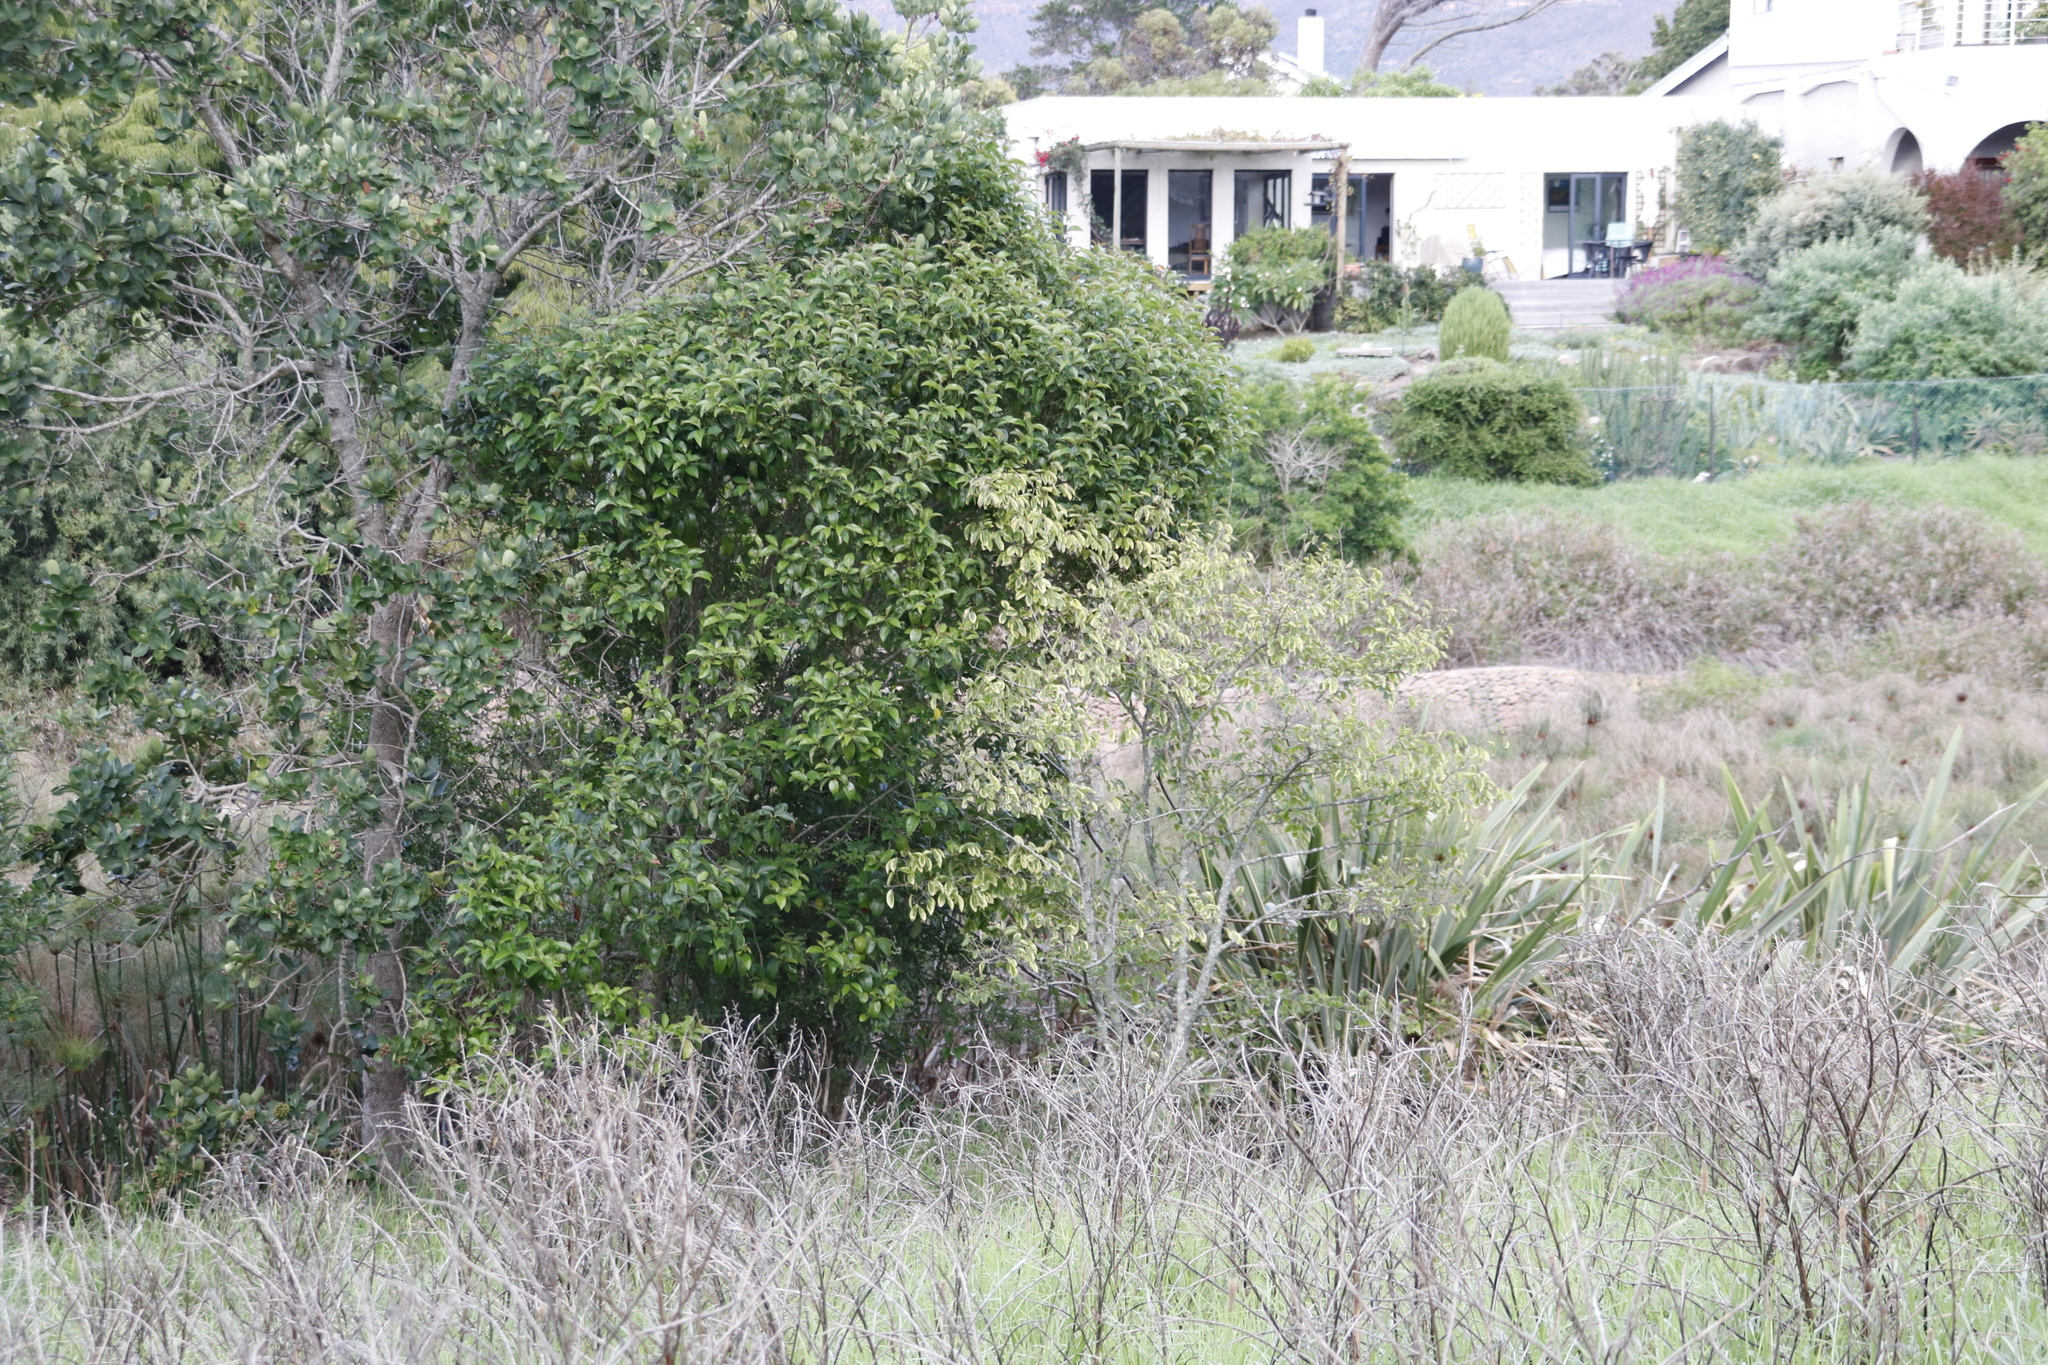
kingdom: Plantae
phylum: Tracheophyta
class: Magnoliopsida
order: Lamiales
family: Oleaceae
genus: Ligustrum
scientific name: Ligustrum lucidum
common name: Glossy privet
